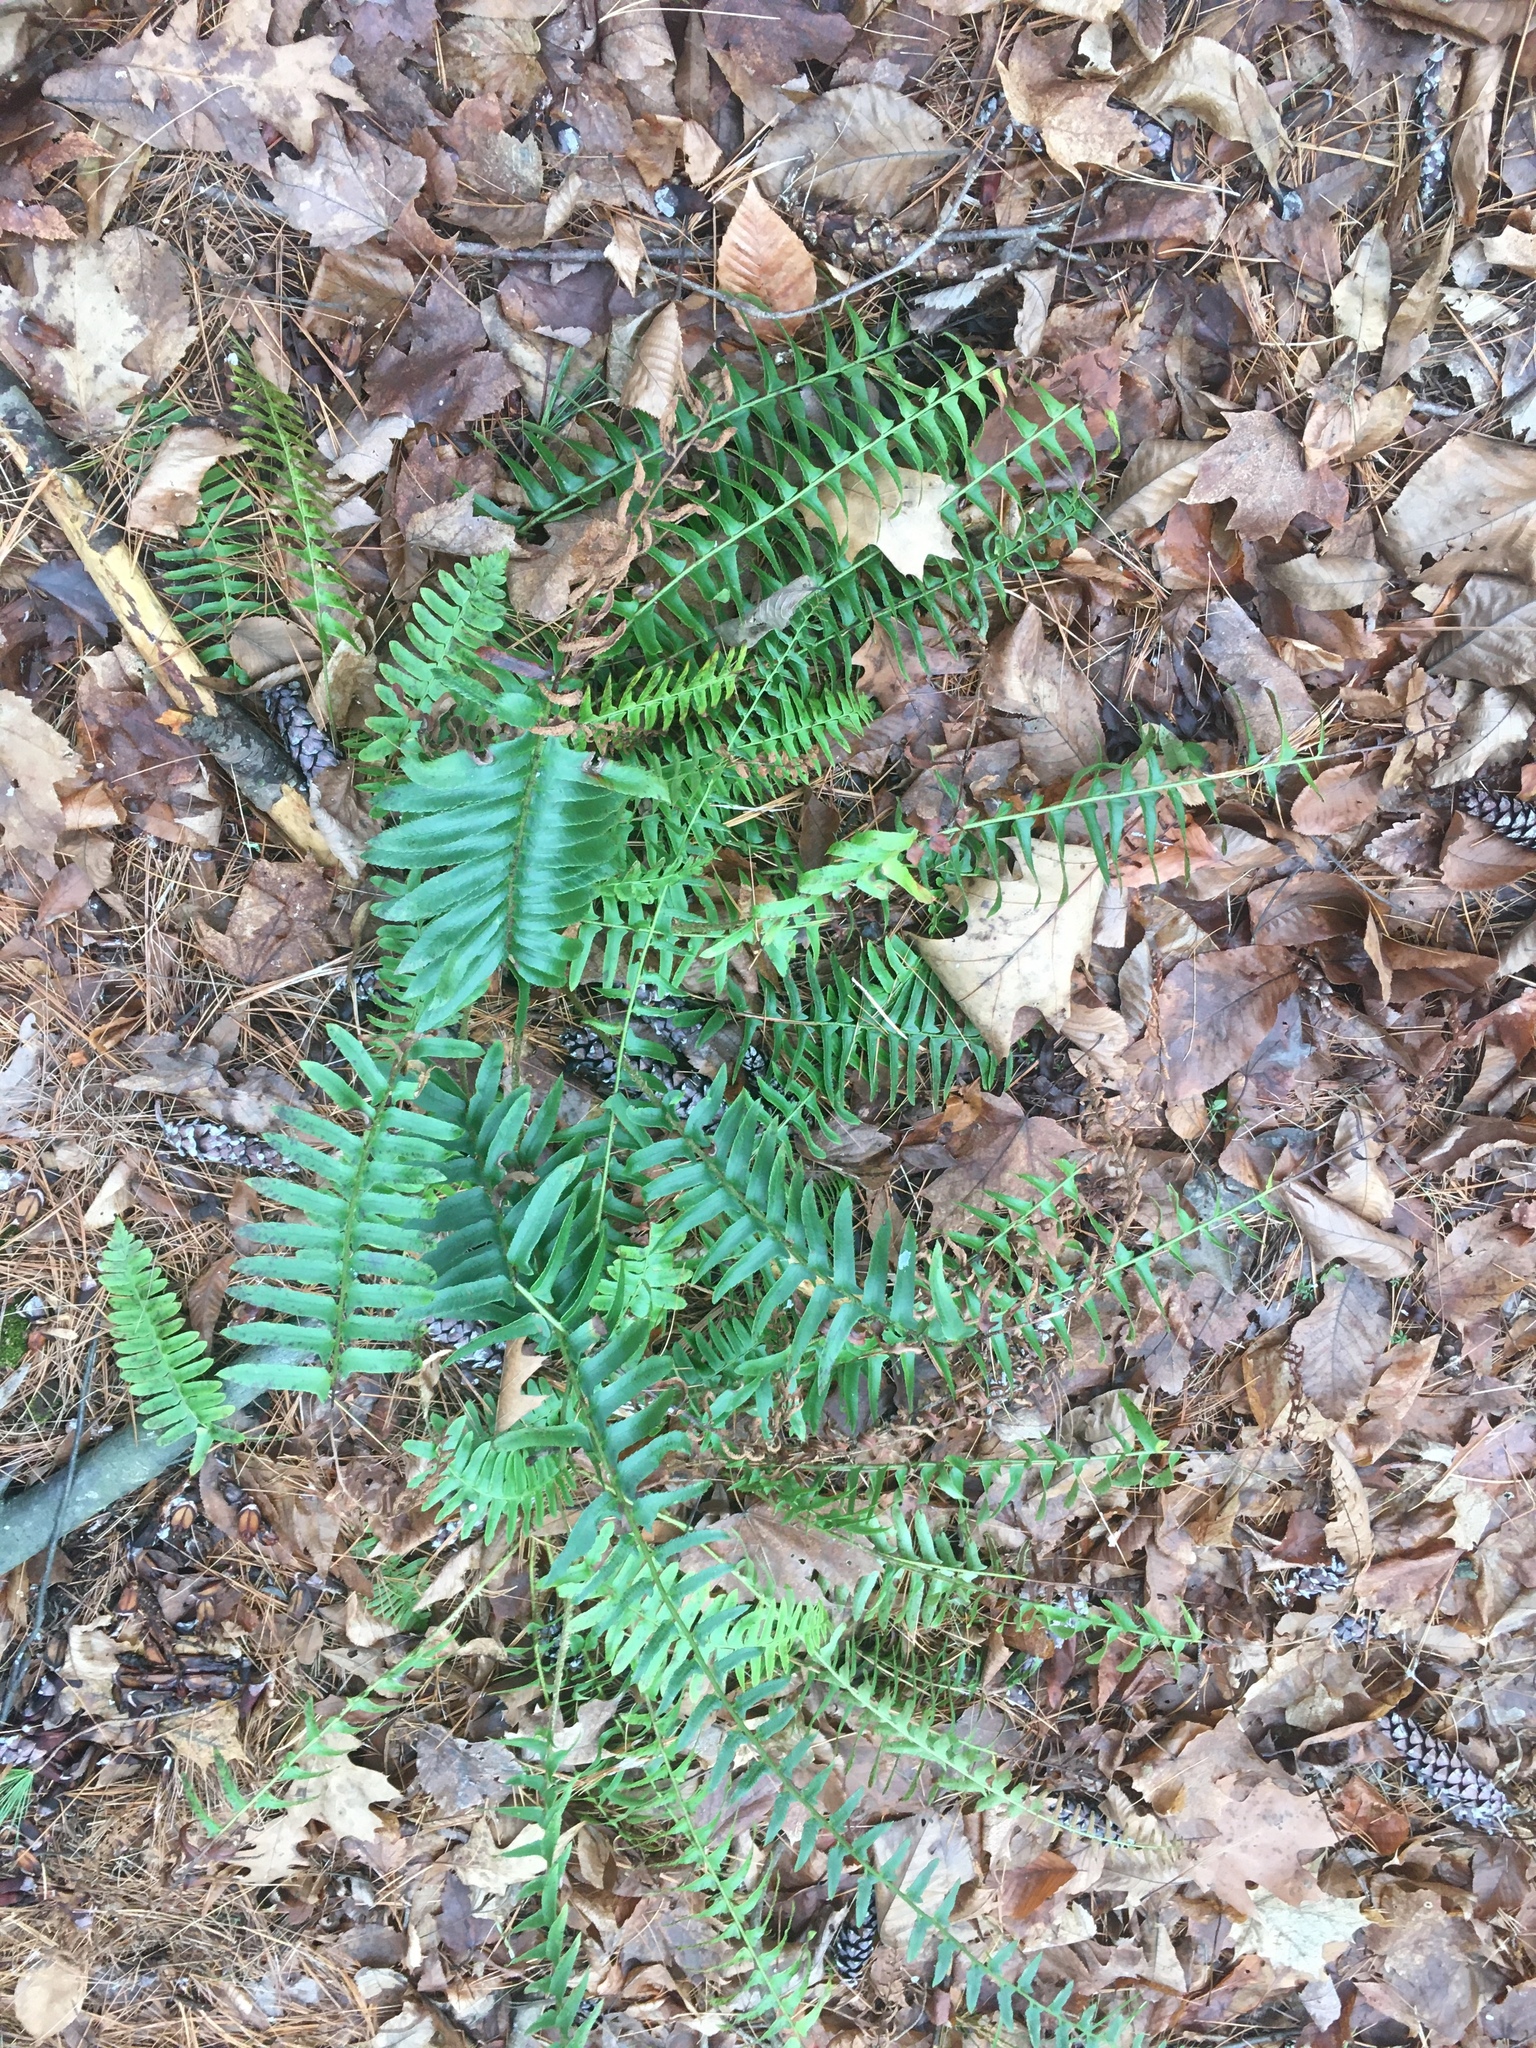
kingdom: Plantae
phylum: Tracheophyta
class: Polypodiopsida
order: Polypodiales
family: Dryopteridaceae
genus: Polystichum
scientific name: Polystichum acrostichoides
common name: Christmas fern
